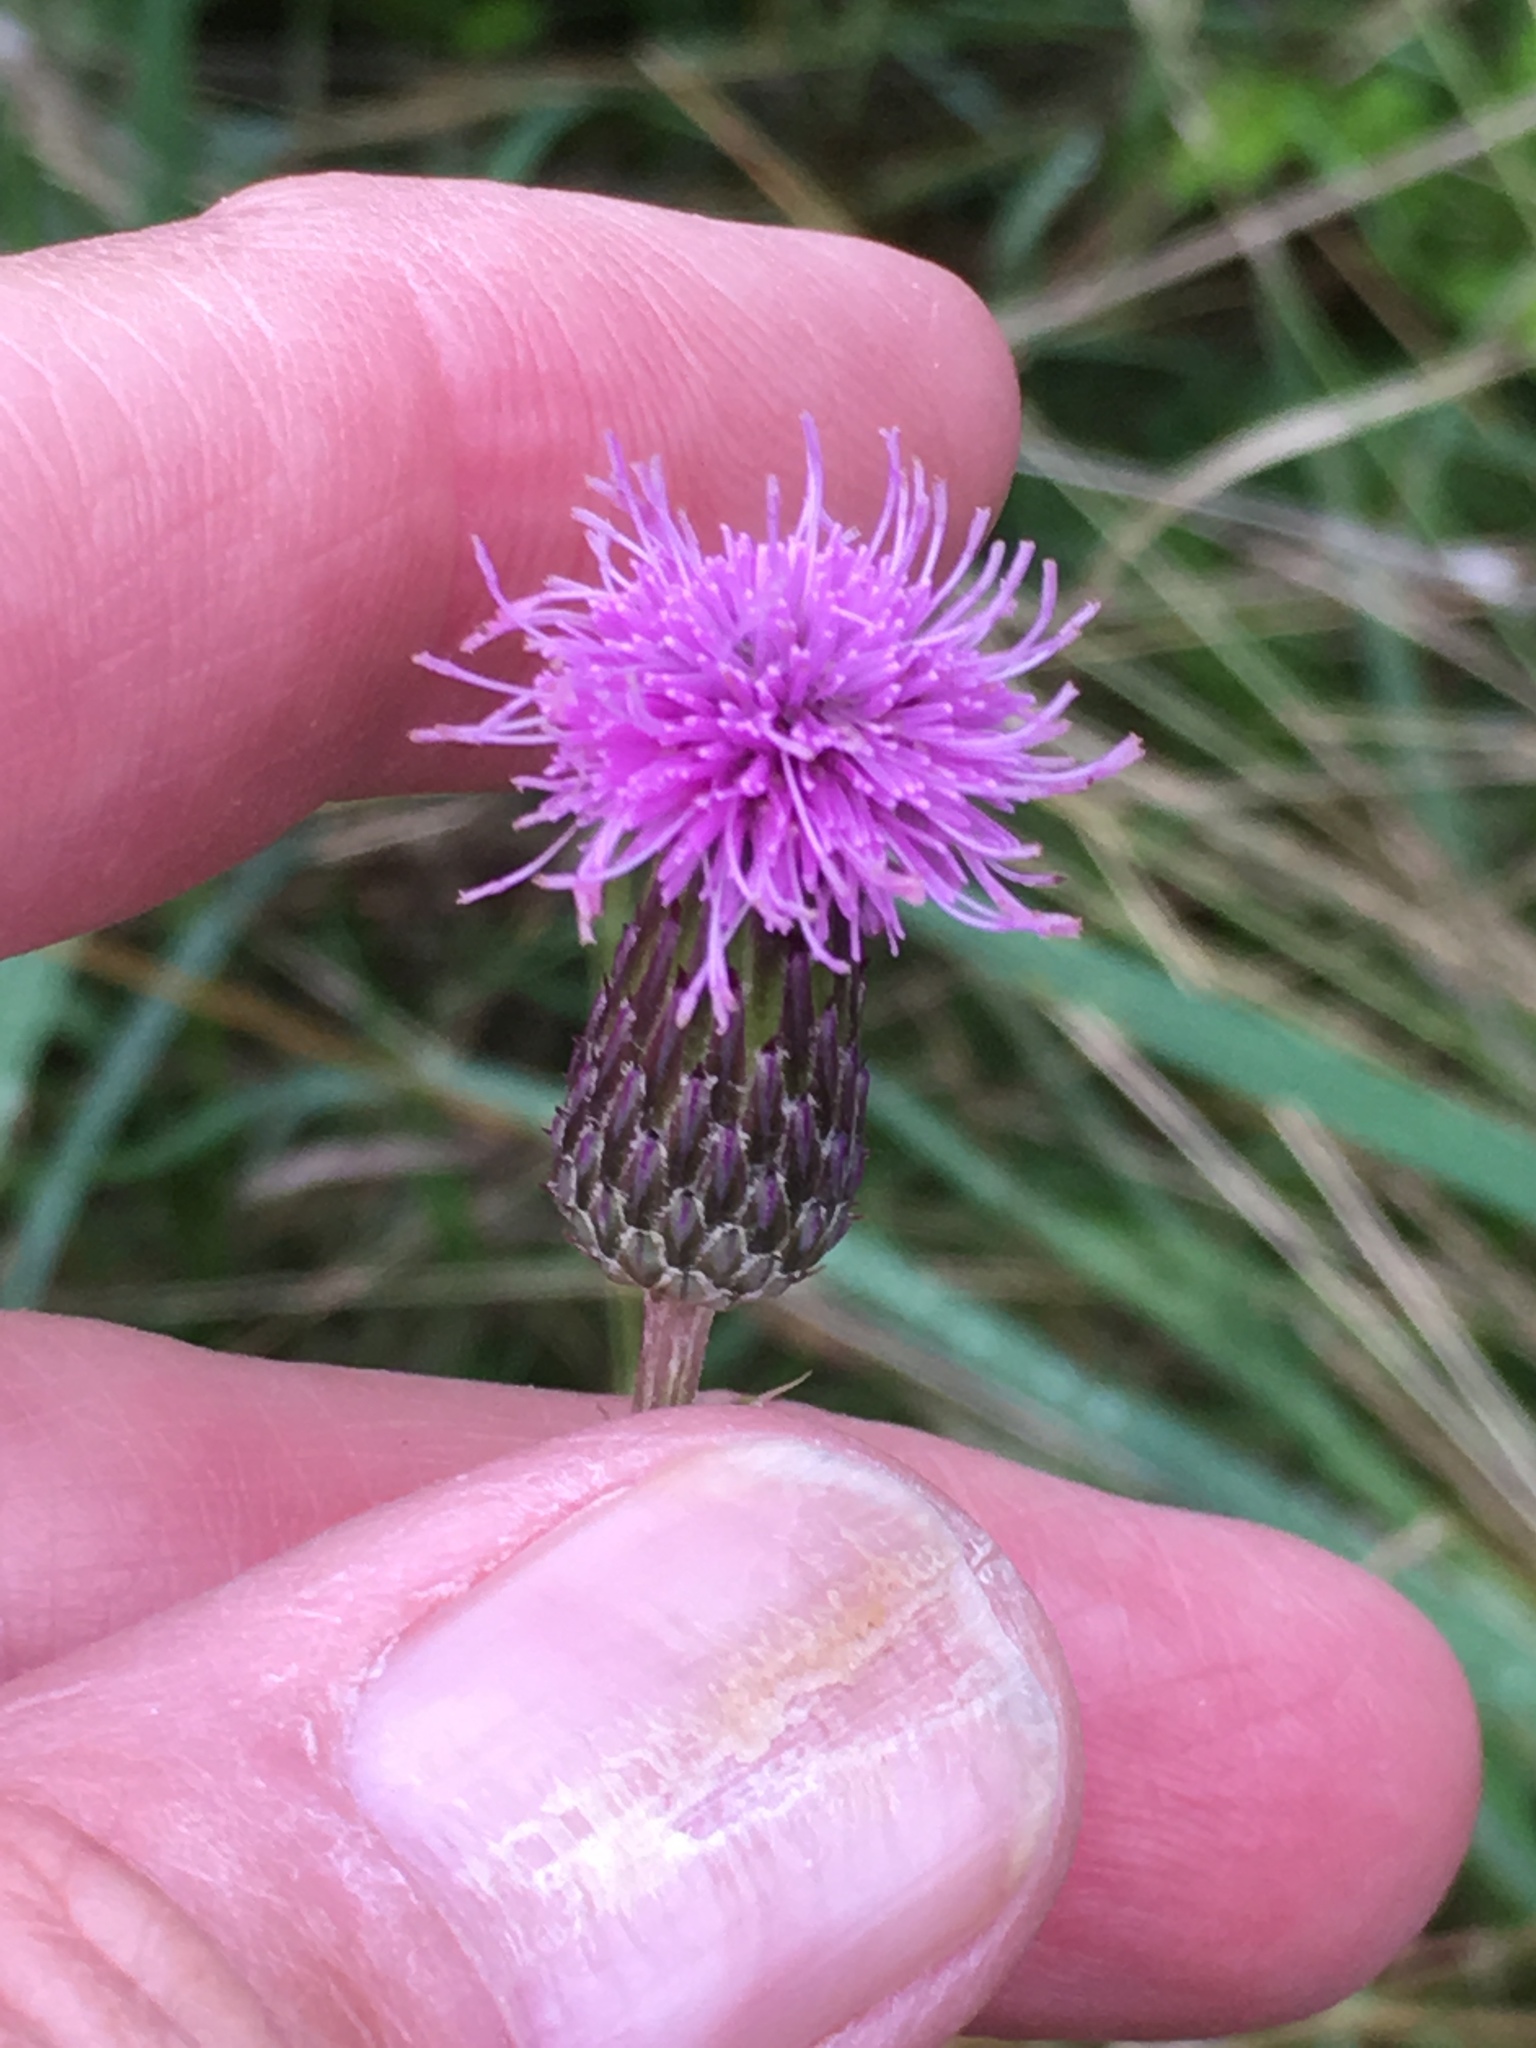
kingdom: Plantae
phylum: Tracheophyta
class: Magnoliopsida
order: Asterales
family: Asteraceae
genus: Cirsium
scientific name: Cirsium arvense
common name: Creeping thistle
